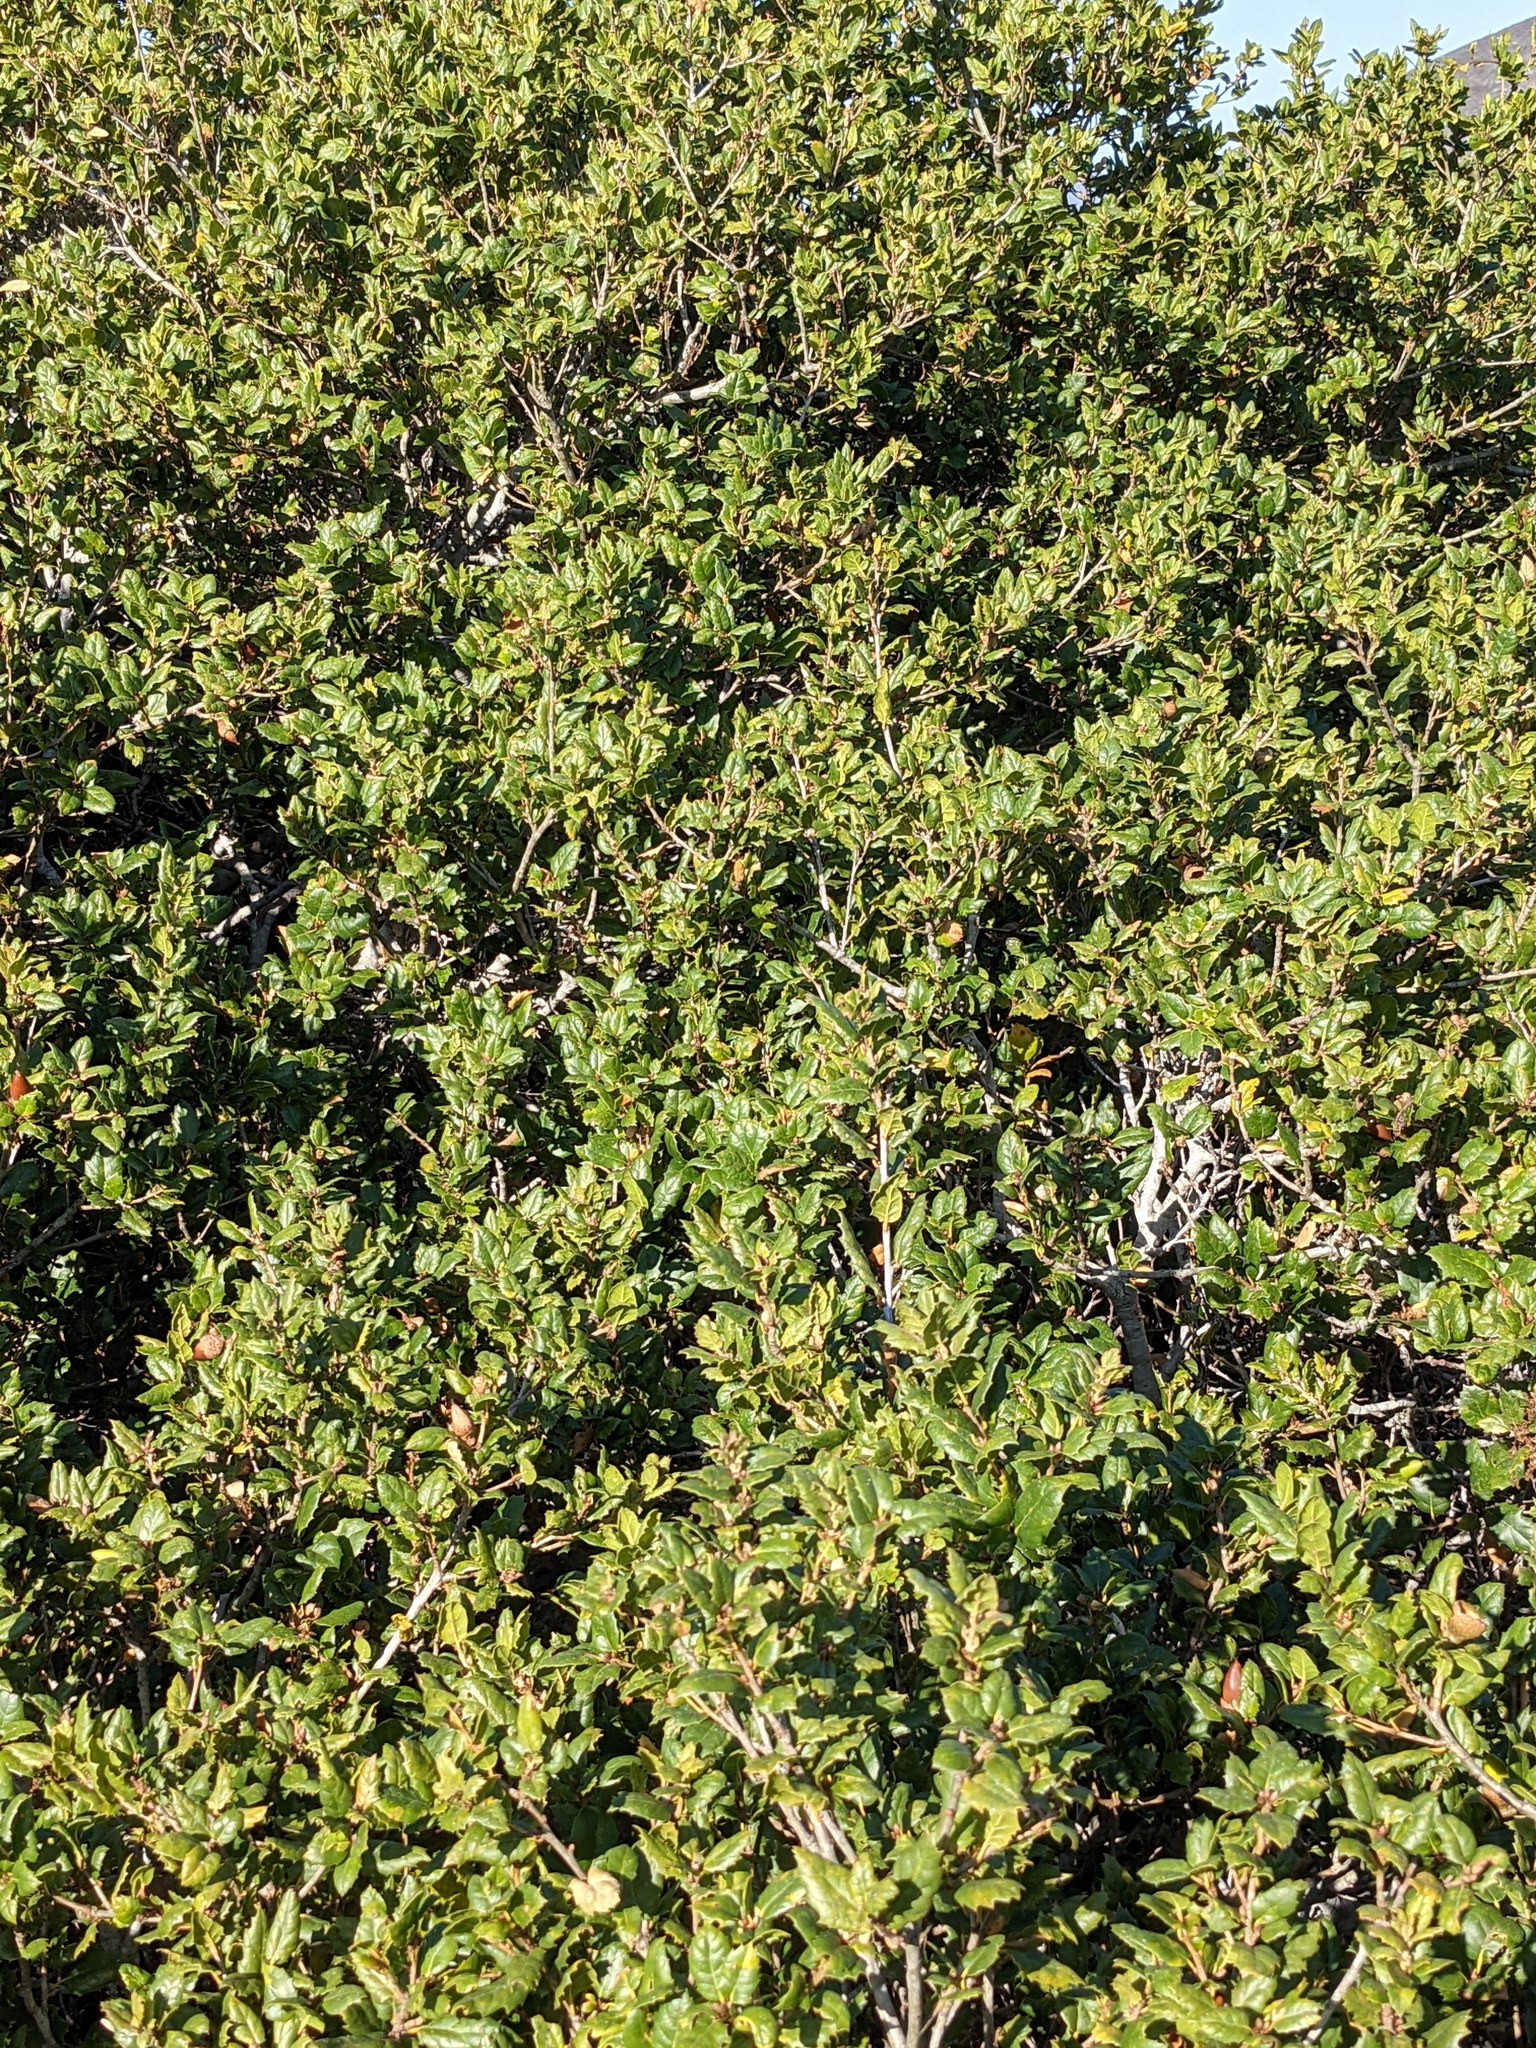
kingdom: Plantae
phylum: Tracheophyta
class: Magnoliopsida
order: Fagales
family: Fagaceae
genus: Quercus
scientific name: Quercus agrifolia
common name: California live oak
